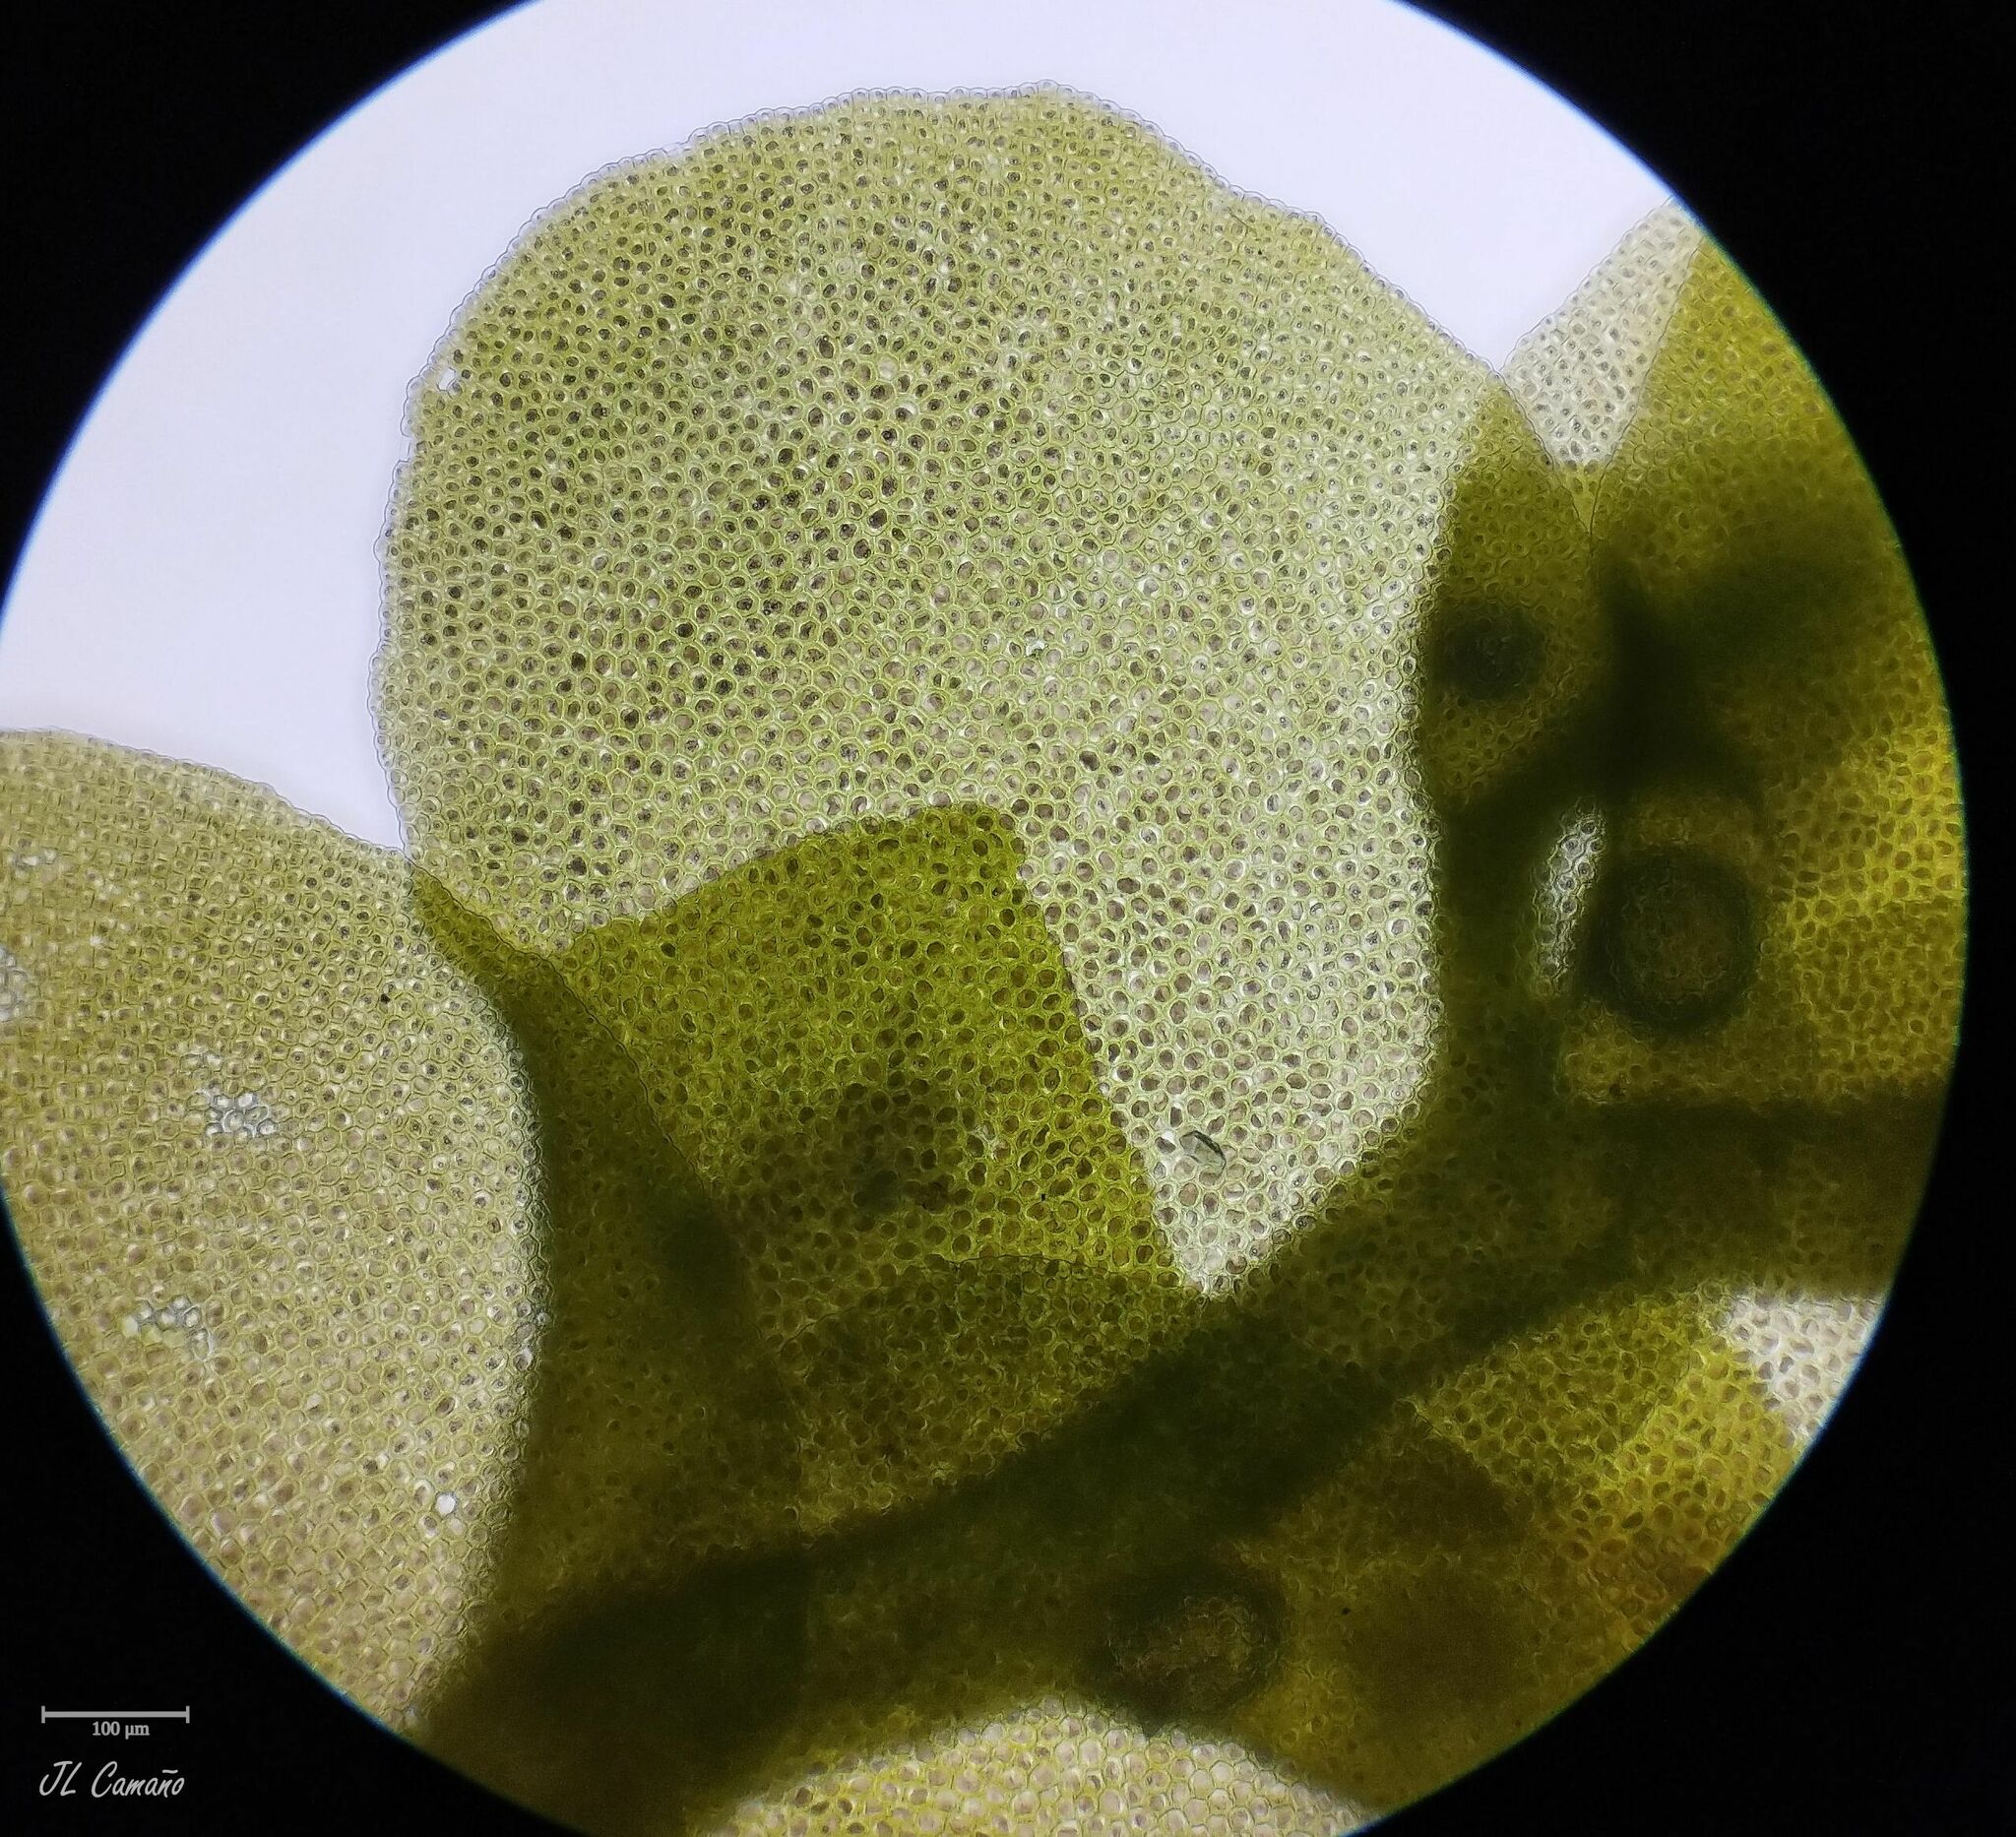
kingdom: Plantae
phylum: Marchantiophyta
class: Jungermanniopsida
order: Porellales
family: Radulaceae
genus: Radula
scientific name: Radula complanata
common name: Flat-leaved scalewort
